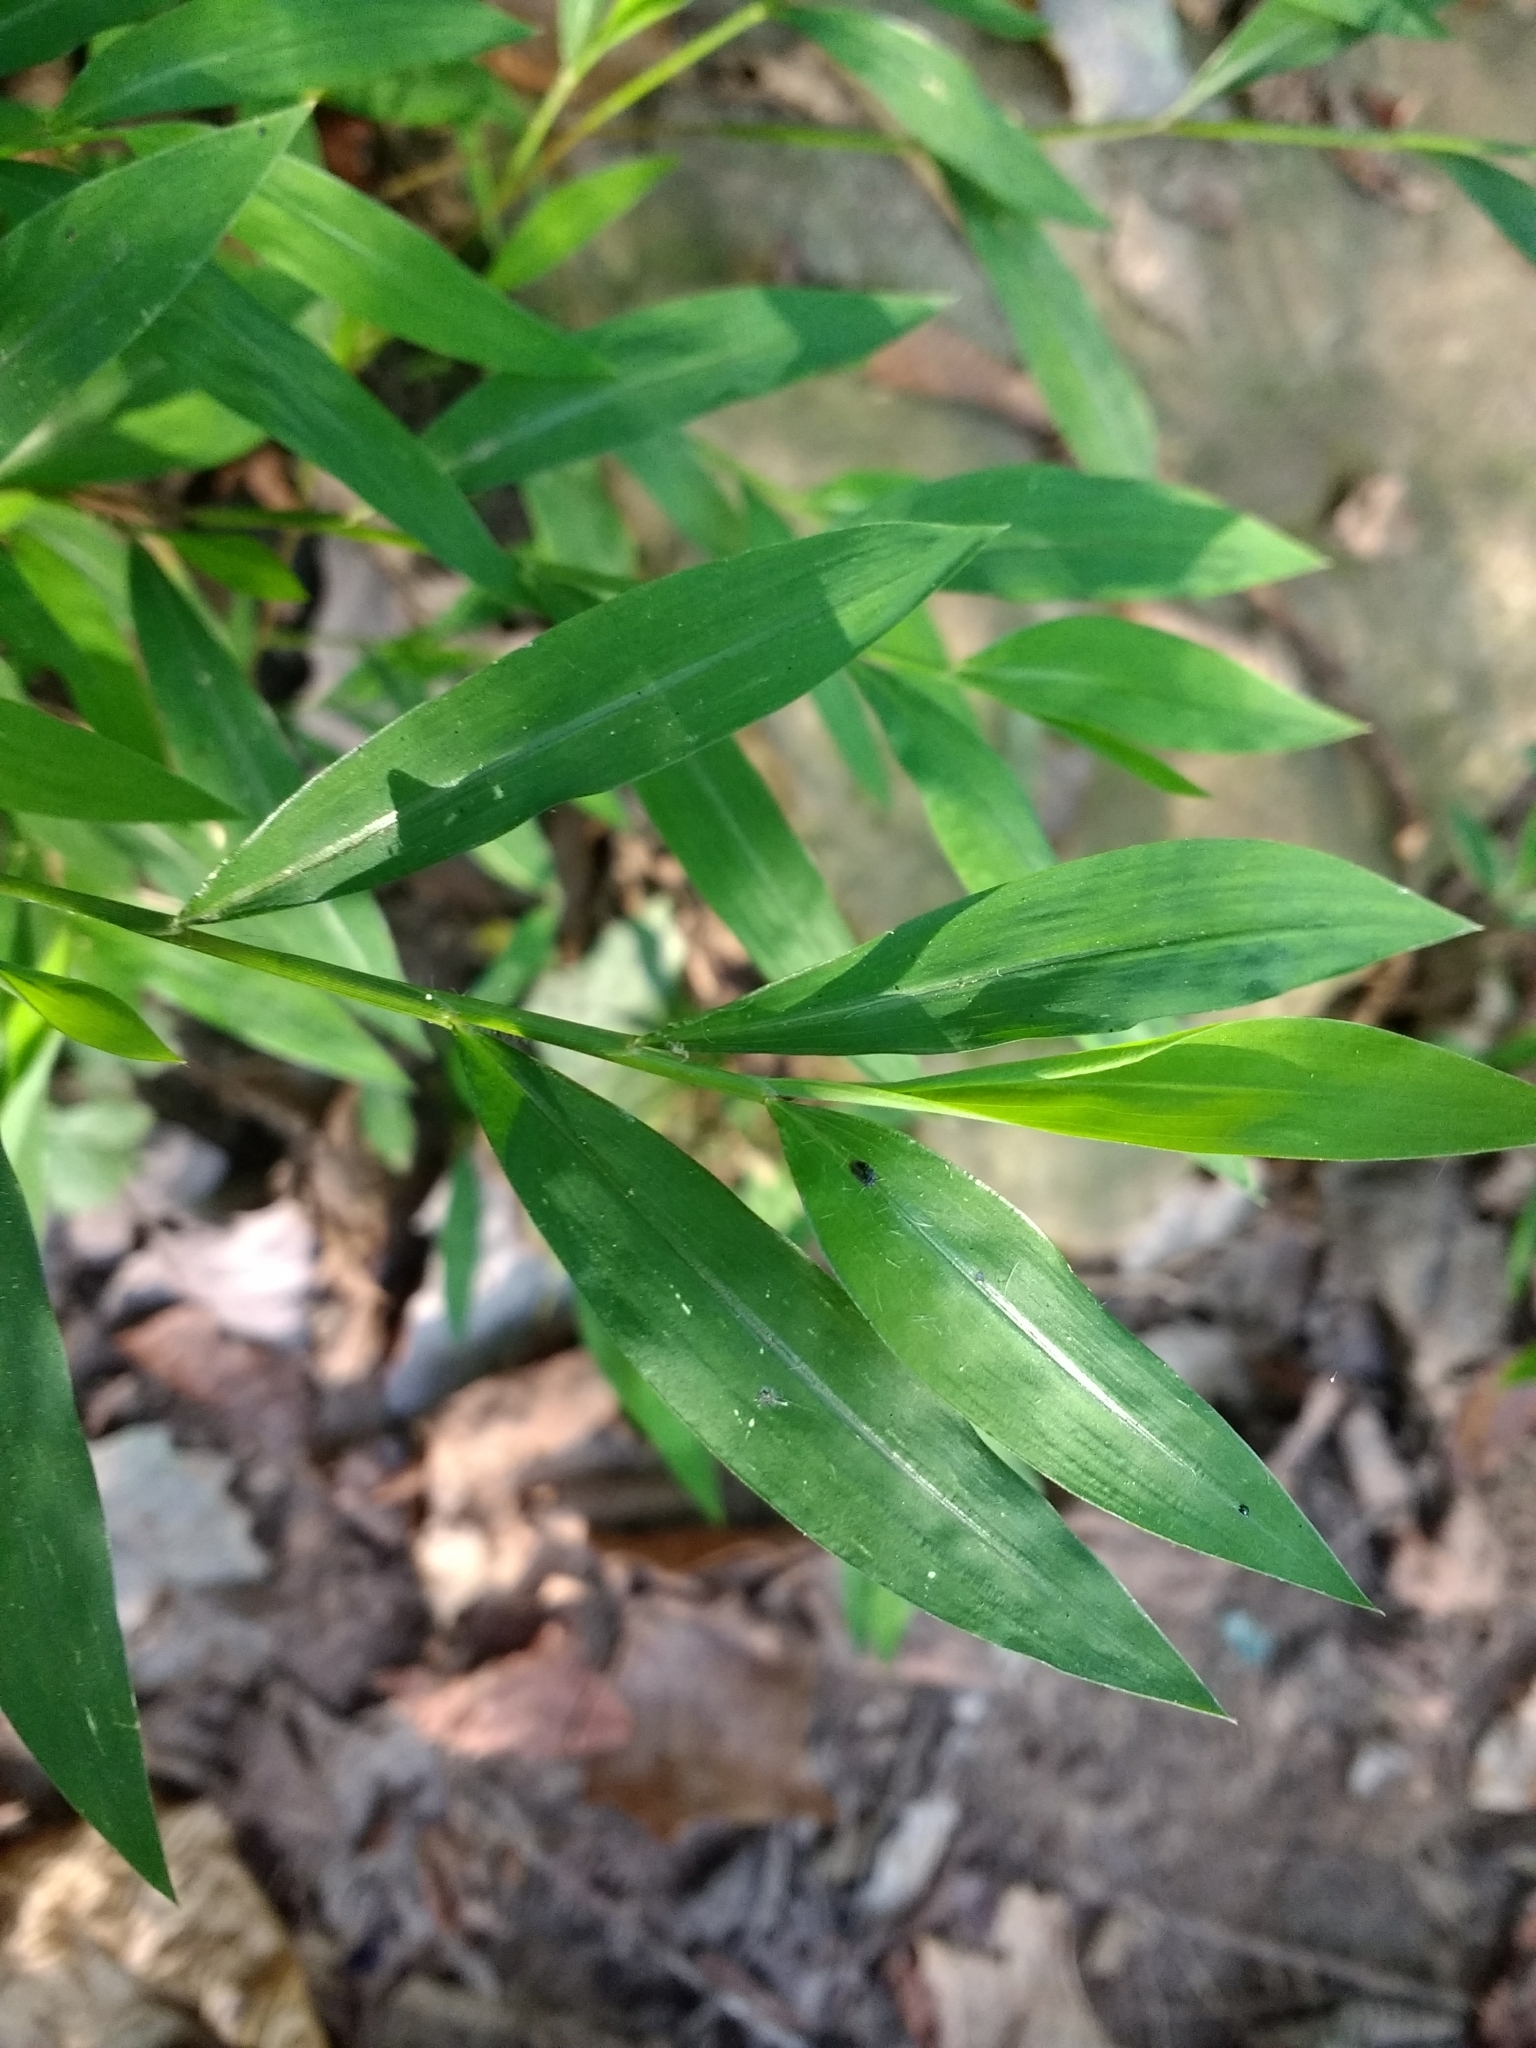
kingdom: Plantae
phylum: Tracheophyta
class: Liliopsida
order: Poales
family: Poaceae
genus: Microstegium
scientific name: Microstegium vimineum
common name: Japanese stiltgrass
